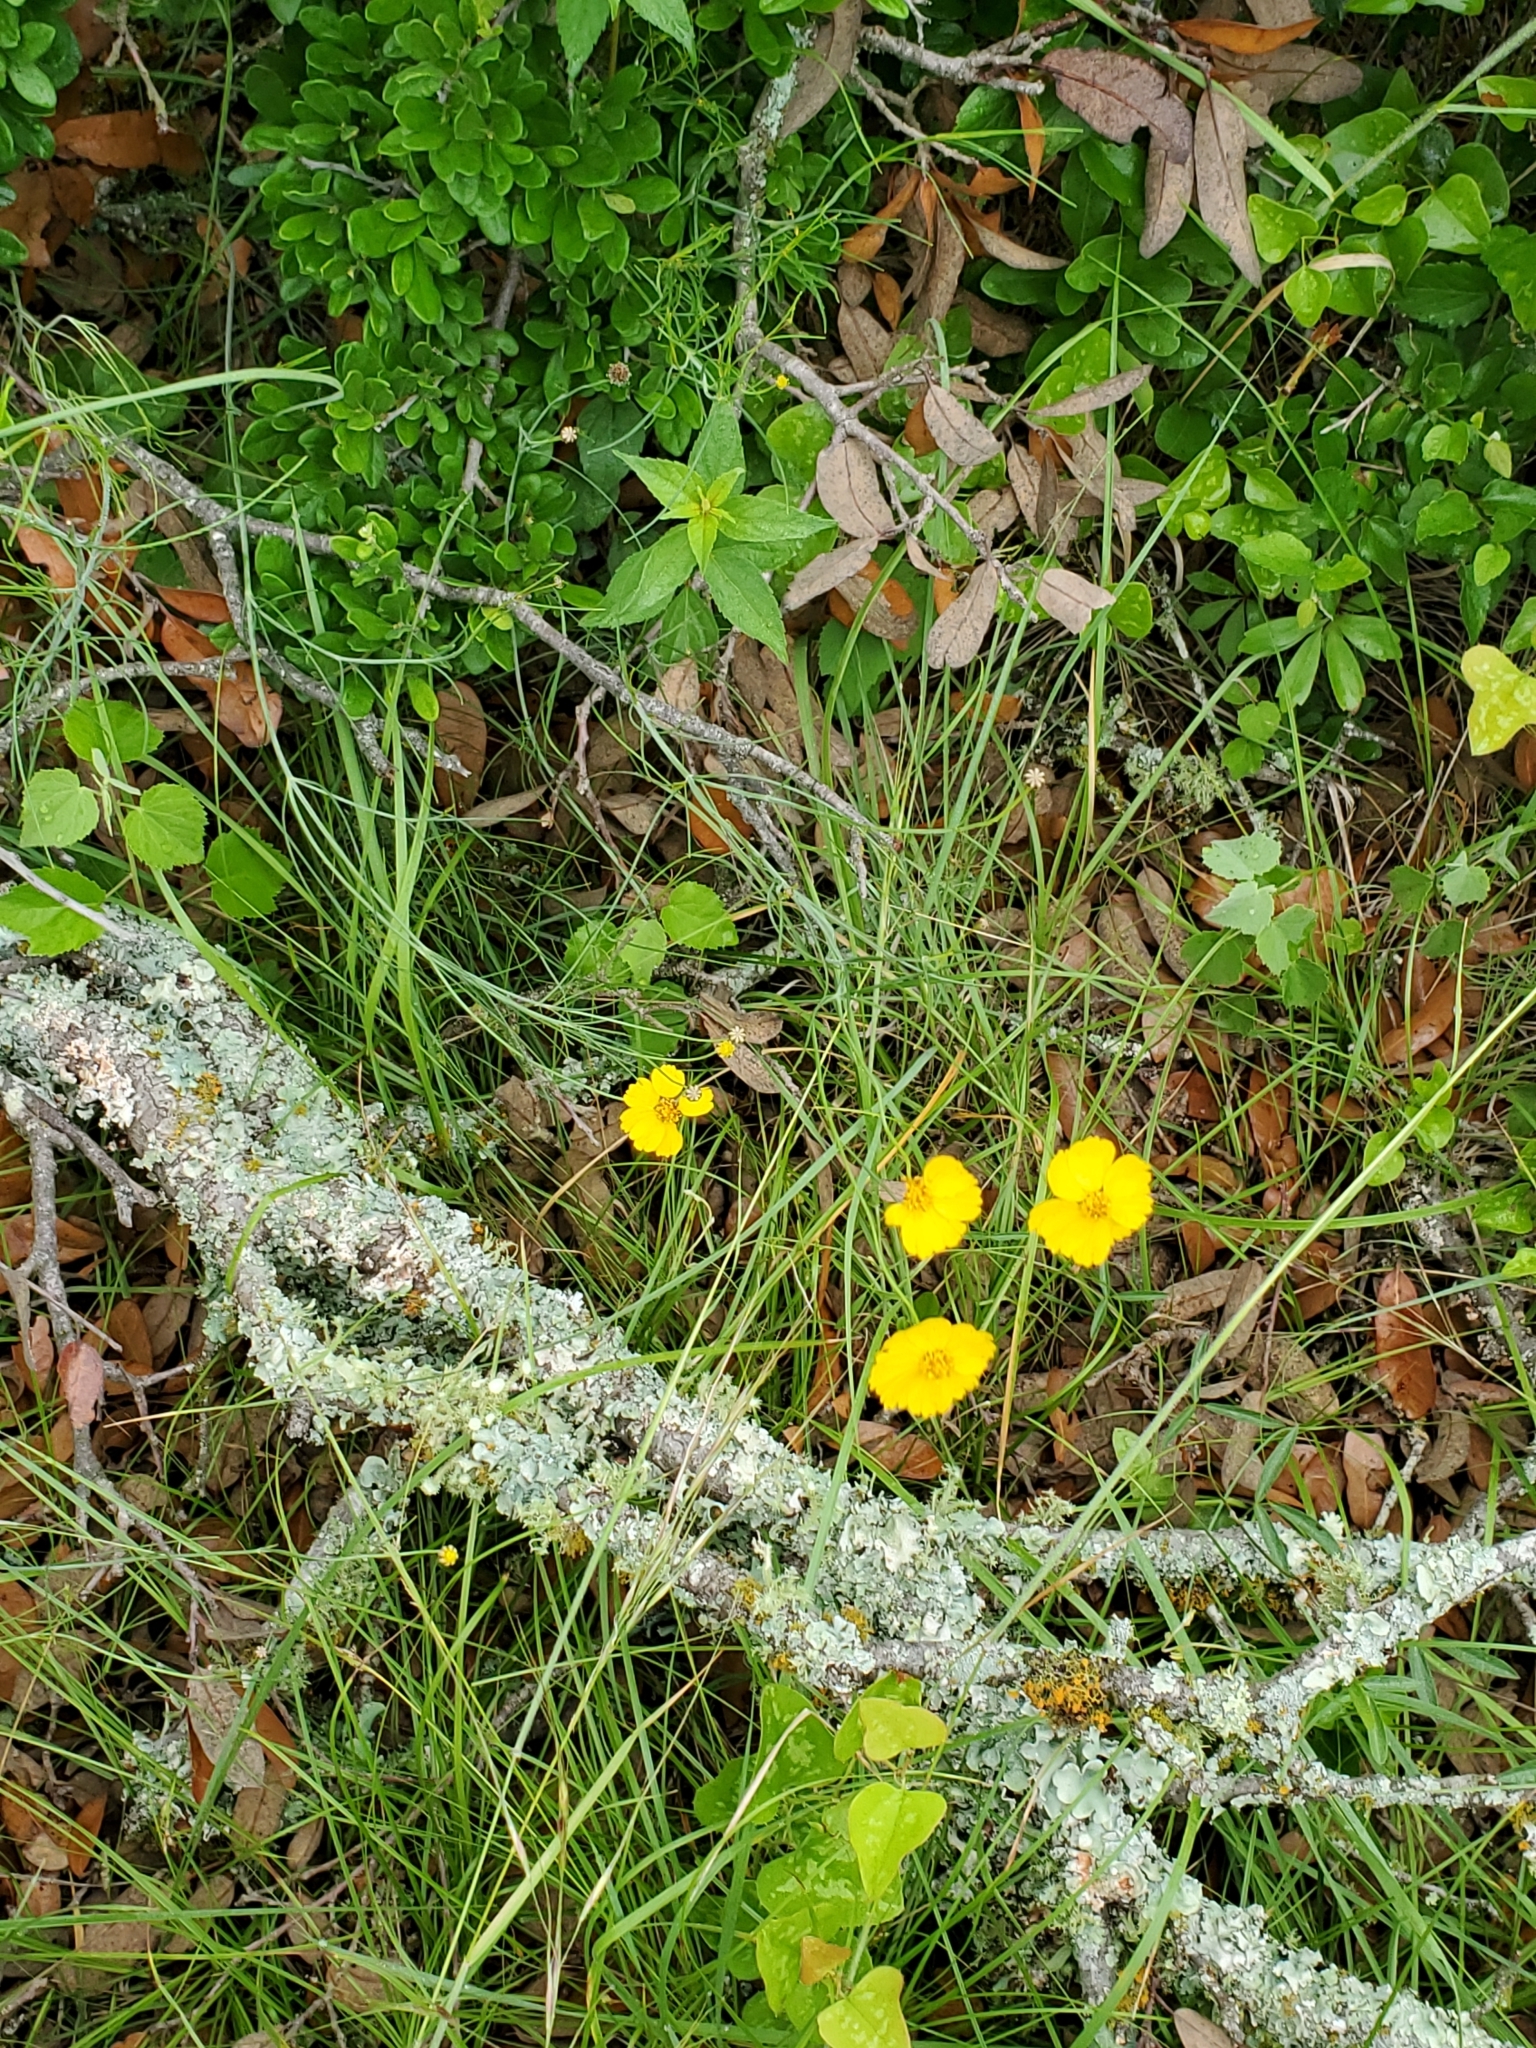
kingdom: Plantae
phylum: Tracheophyta
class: Magnoliopsida
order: Asterales
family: Asteraceae
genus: Thelesperma
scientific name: Thelesperma simplicifolium
